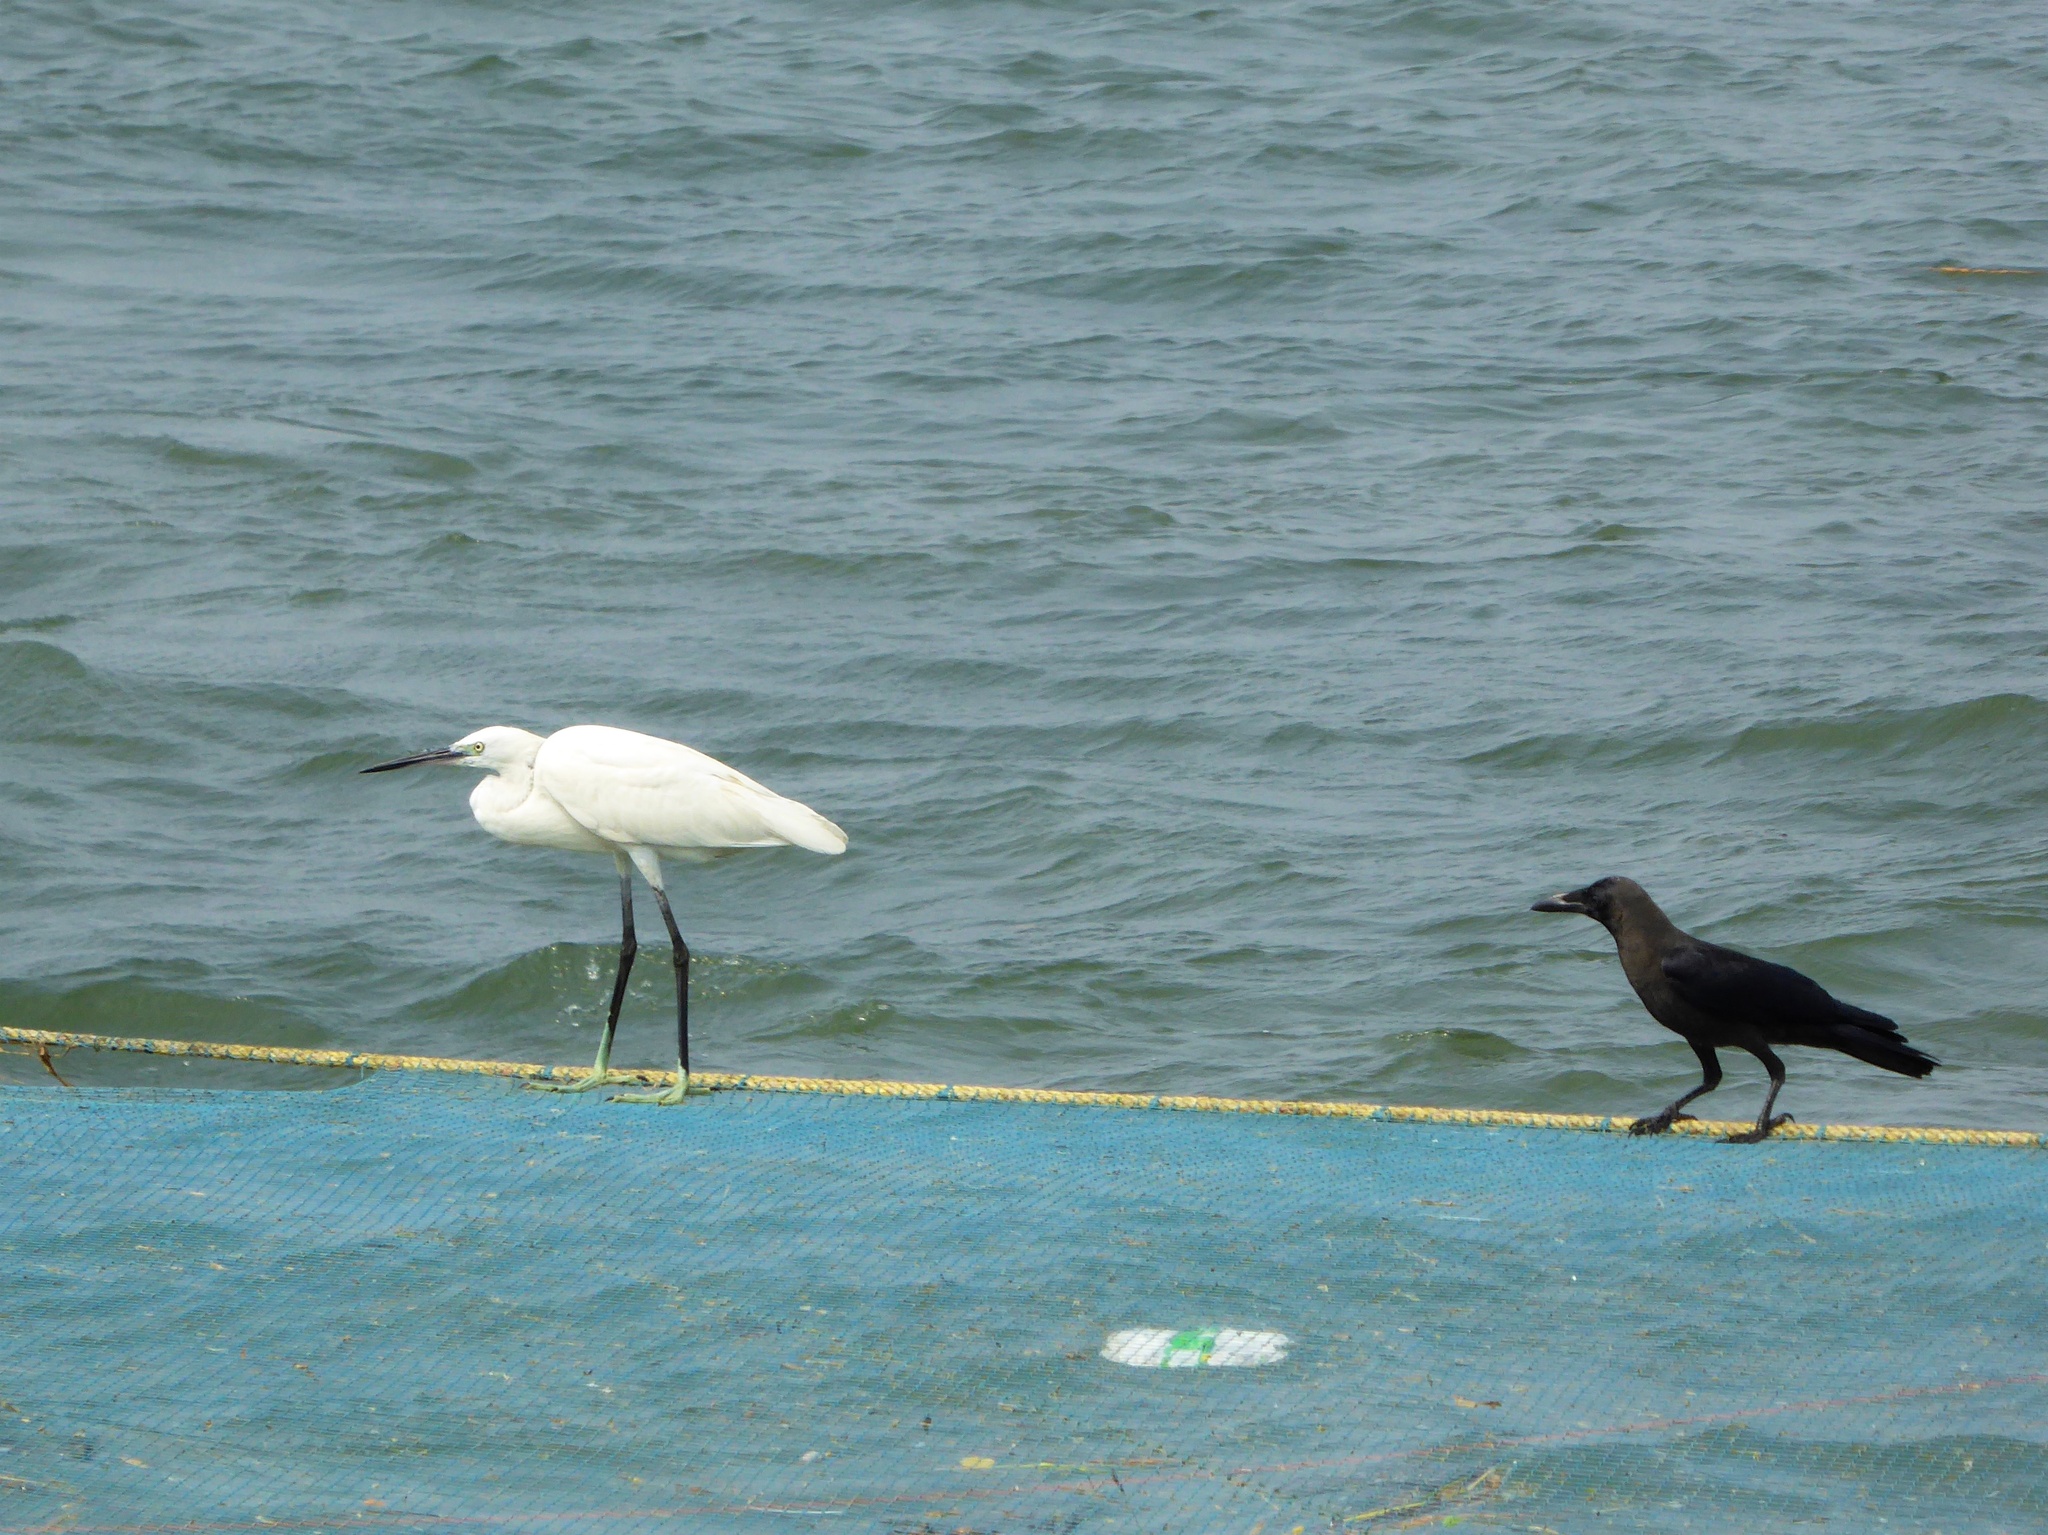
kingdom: Animalia
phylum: Chordata
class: Aves
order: Pelecaniformes
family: Ardeidae
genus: Egretta
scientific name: Egretta garzetta
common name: Little egret
